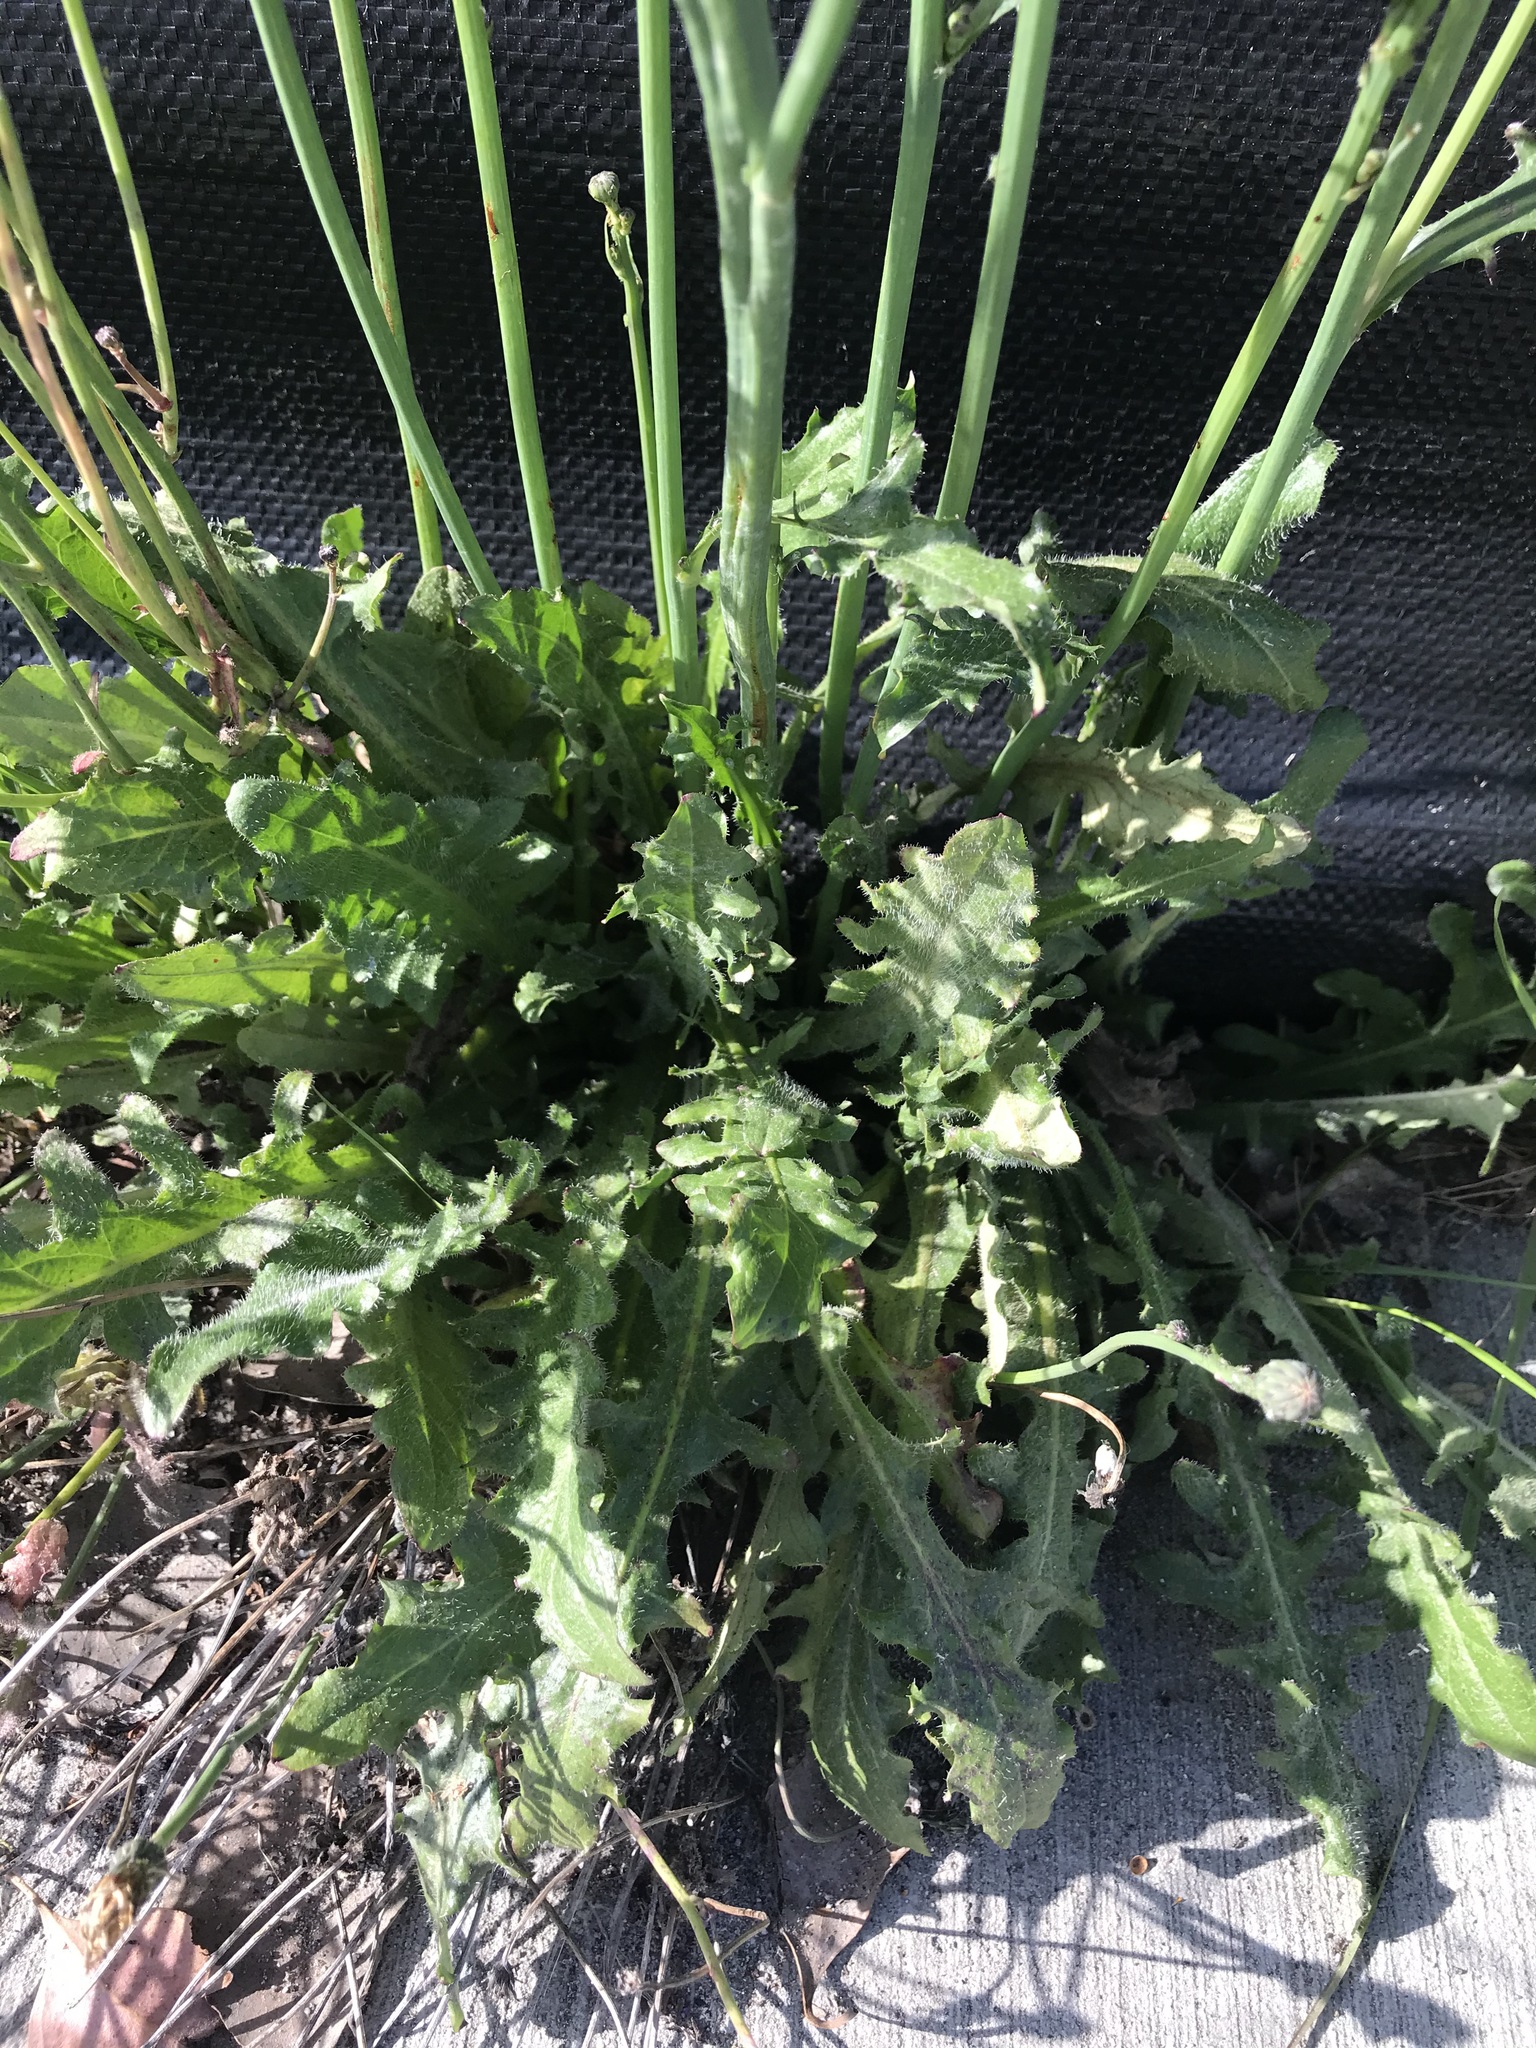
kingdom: Plantae
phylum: Tracheophyta
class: Magnoliopsida
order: Asterales
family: Asteraceae
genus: Hypochaeris
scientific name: Hypochaeris radicata
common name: Flatweed
